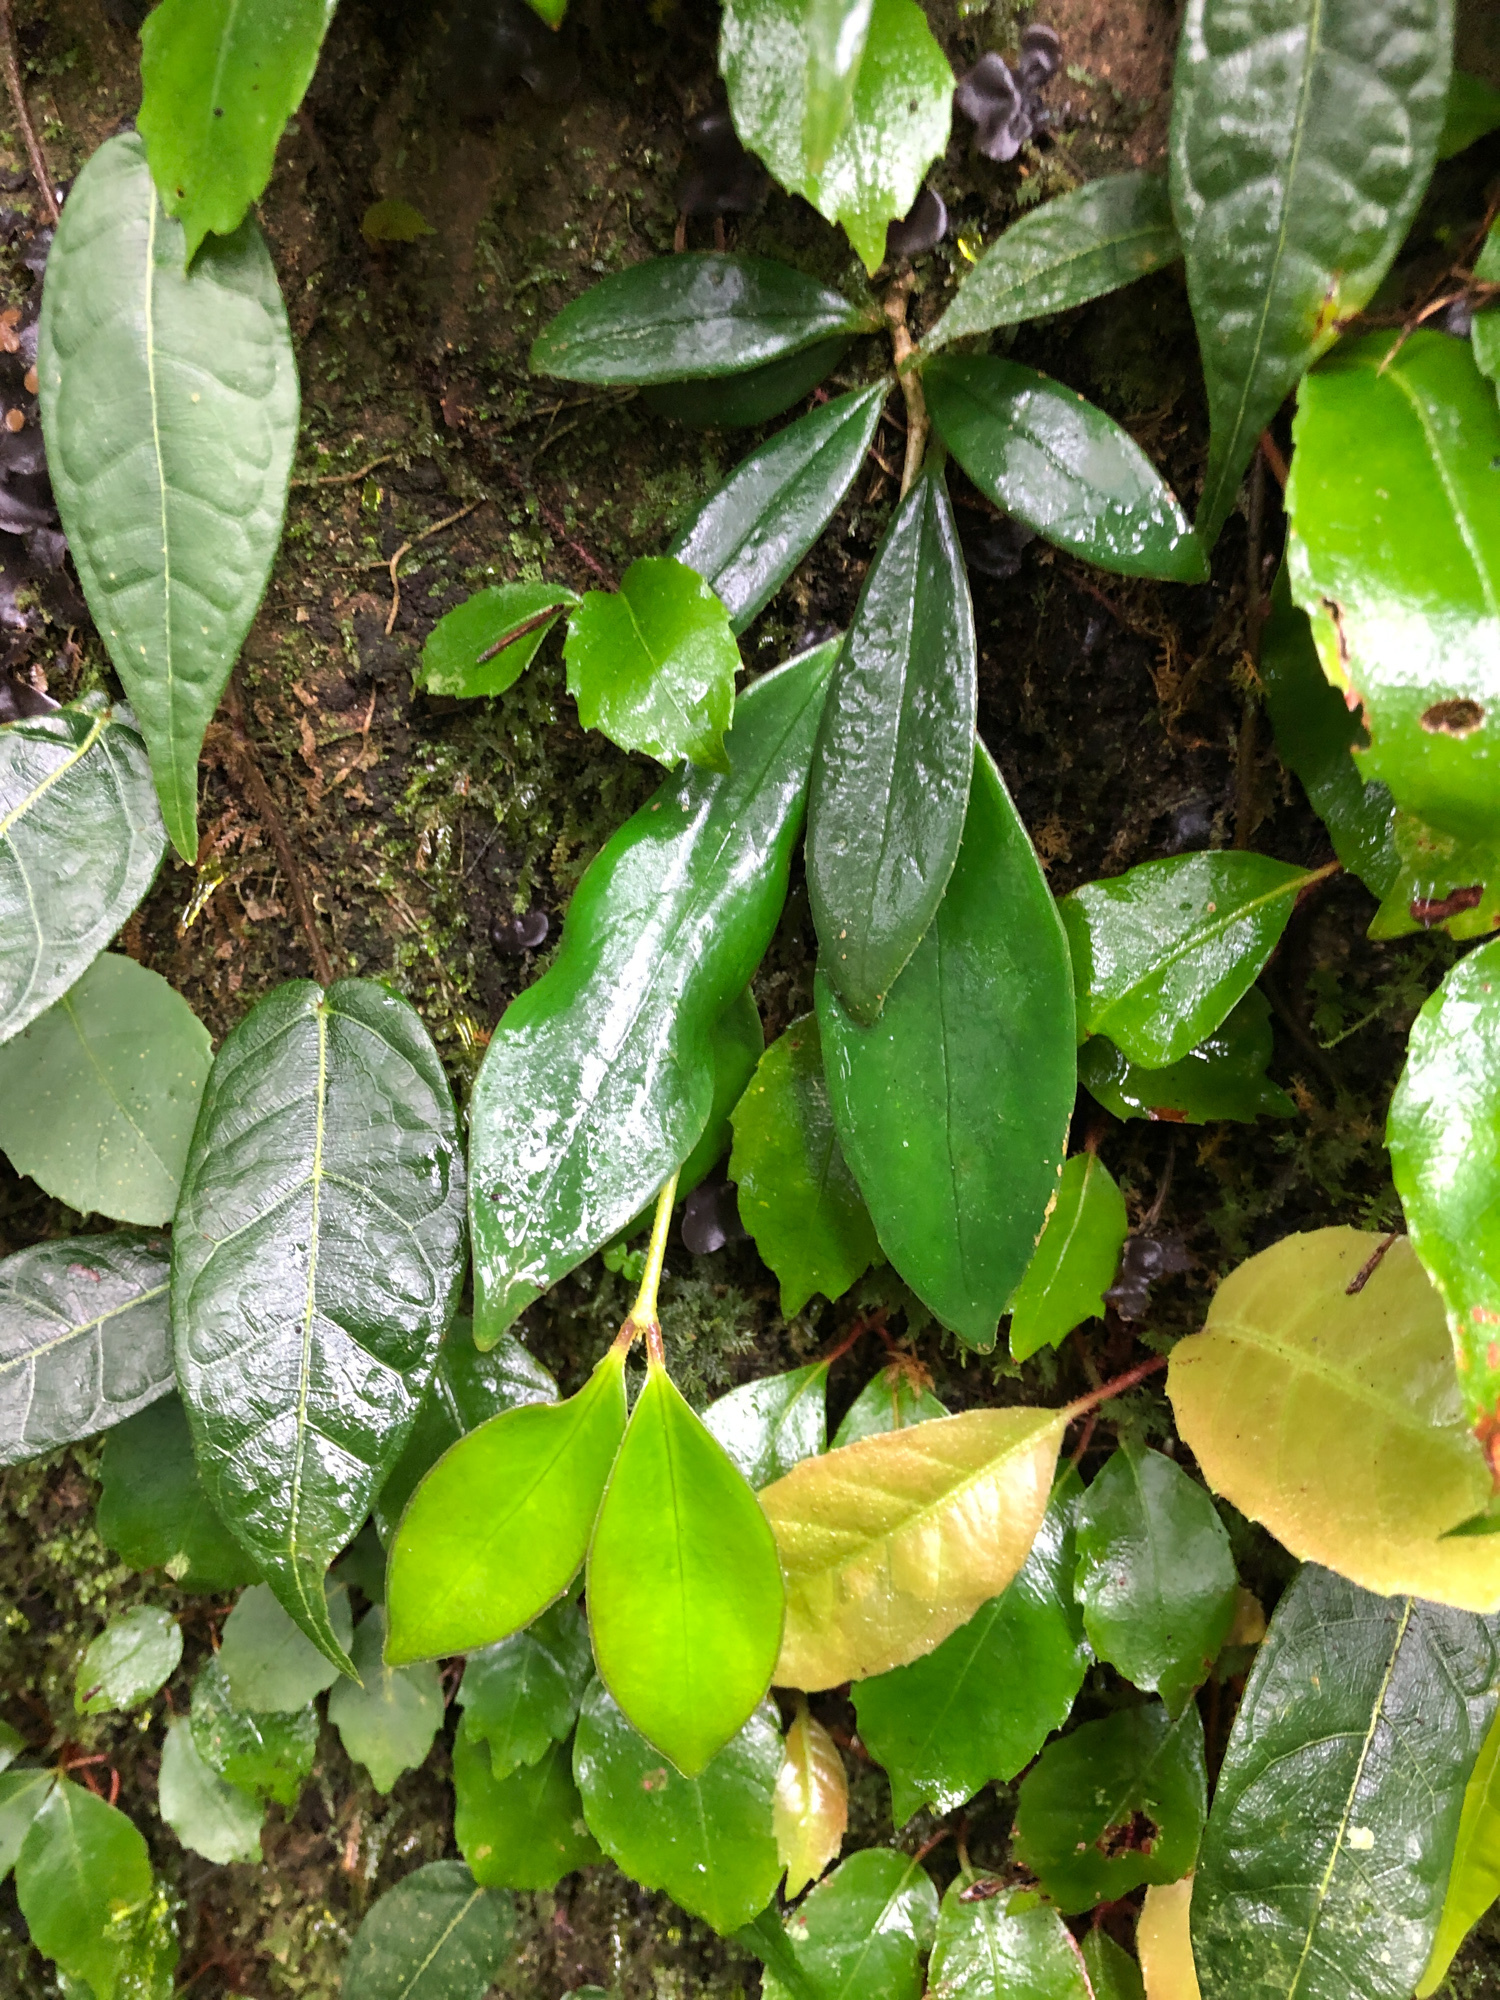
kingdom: Plantae
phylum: Tracheophyta
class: Magnoliopsida
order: Rosales
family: Moraceae
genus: Ficus
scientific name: Ficus sarmentosa
